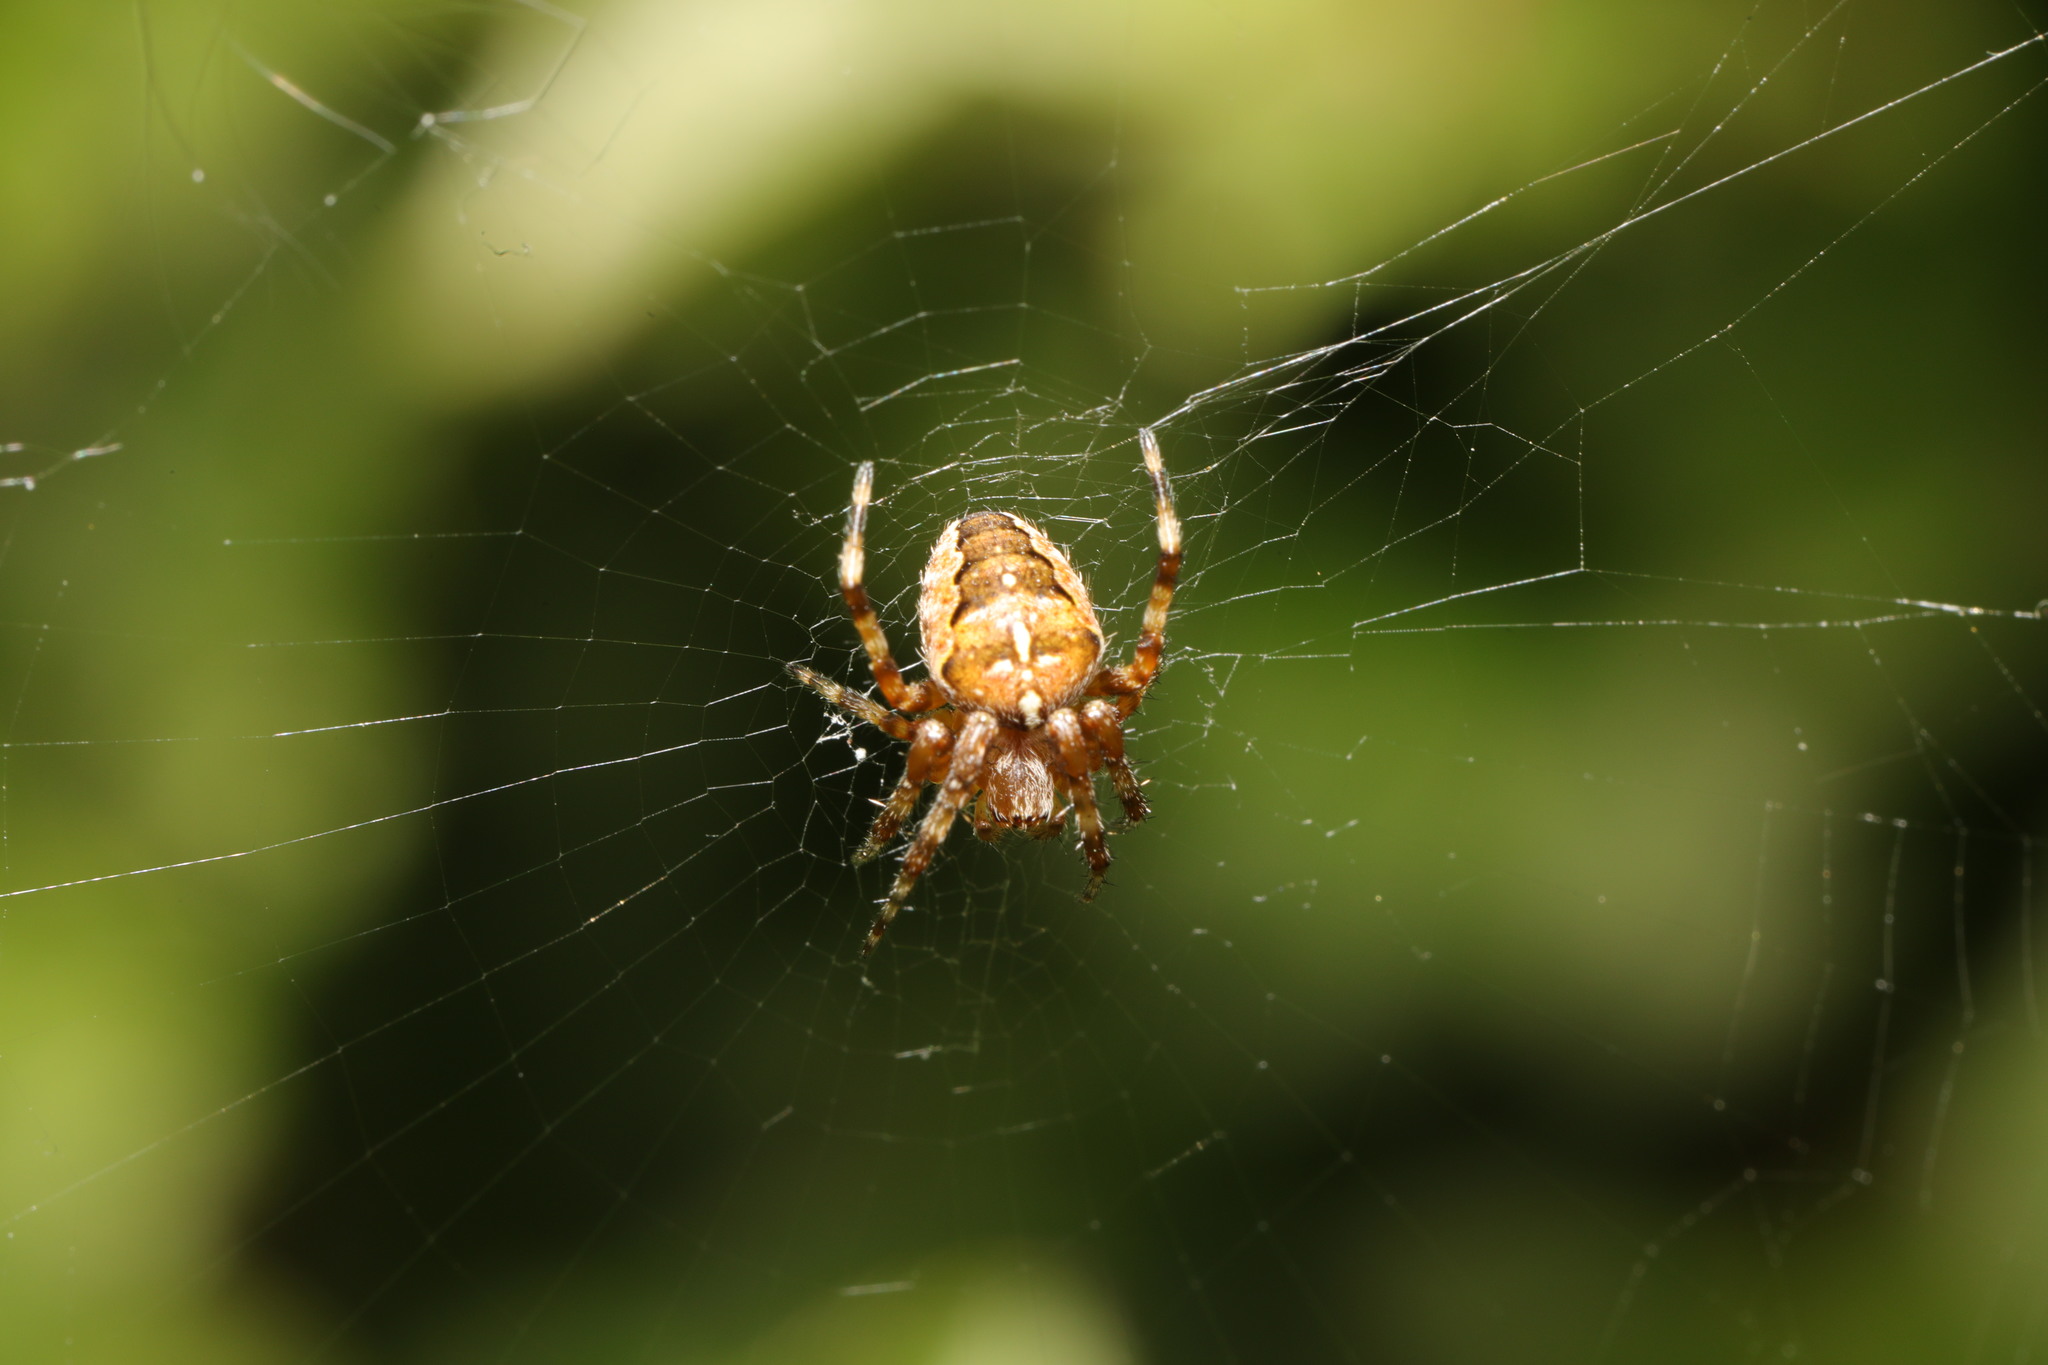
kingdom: Animalia
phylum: Arthropoda
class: Arachnida
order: Araneae
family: Araneidae
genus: Araneus
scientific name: Araneus diadematus
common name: Cross orbweaver
